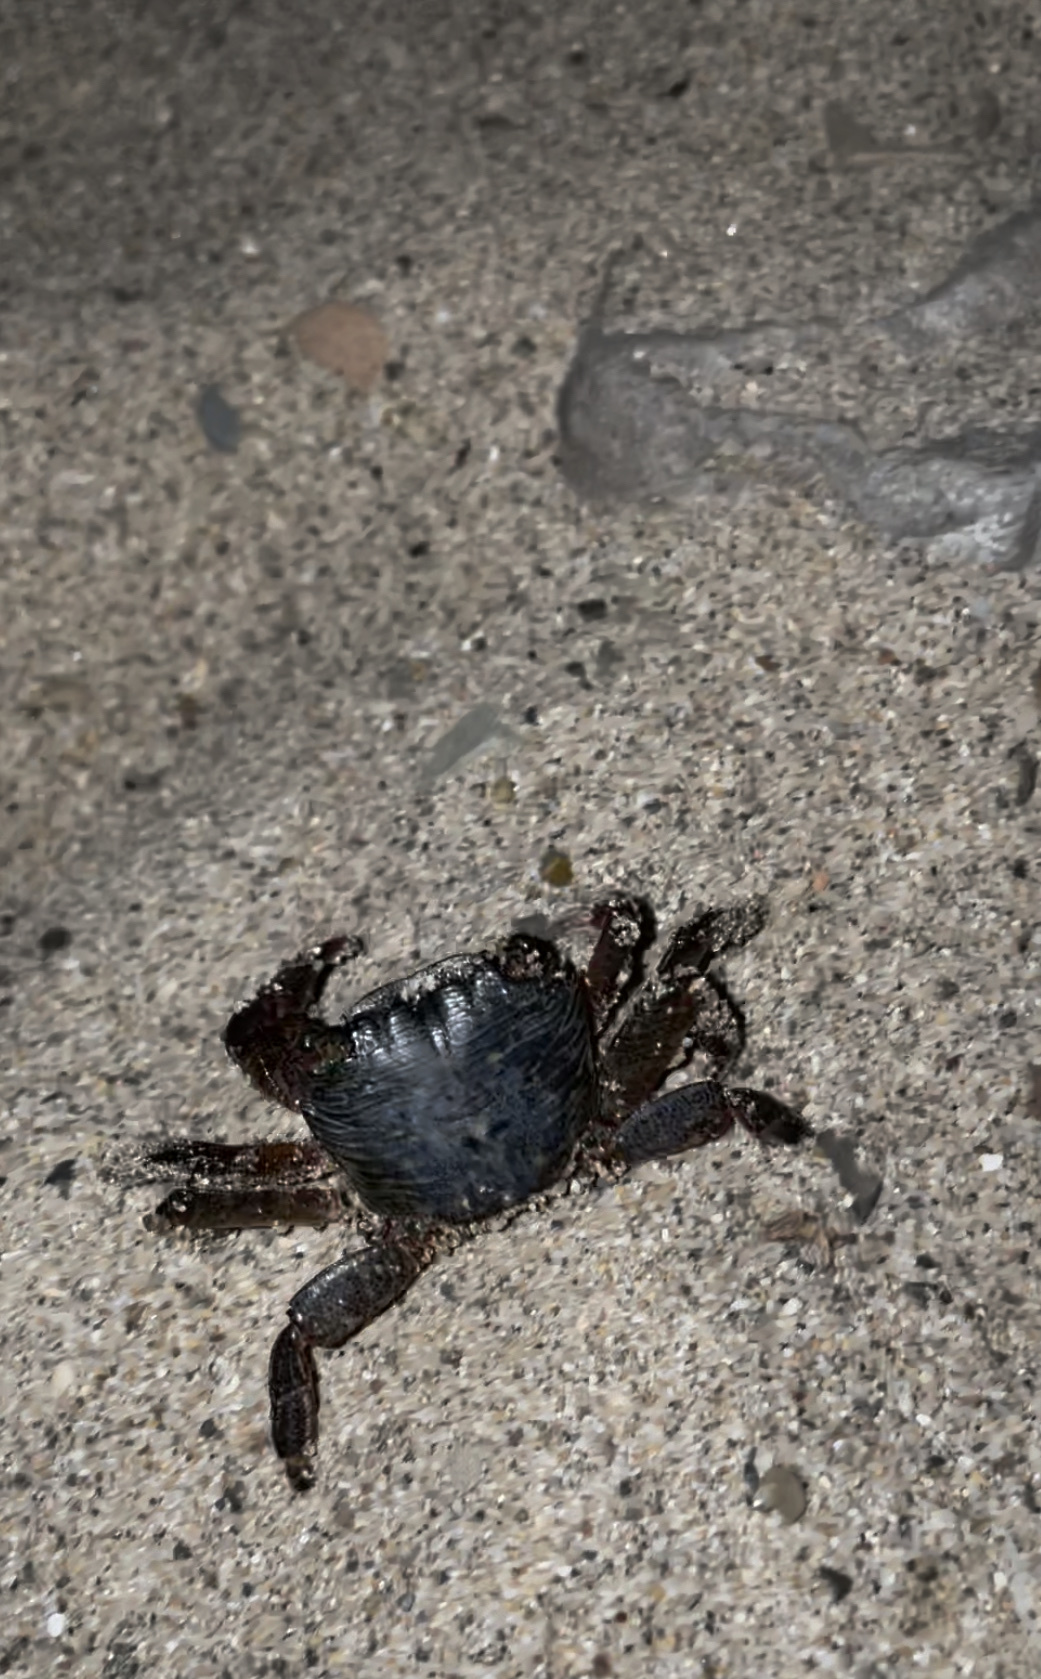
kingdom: Animalia
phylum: Arthropoda
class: Malacostraca
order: Decapoda
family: Grapsidae
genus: Pachygrapsus
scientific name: Pachygrapsus crassipes
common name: Striped shore crab
